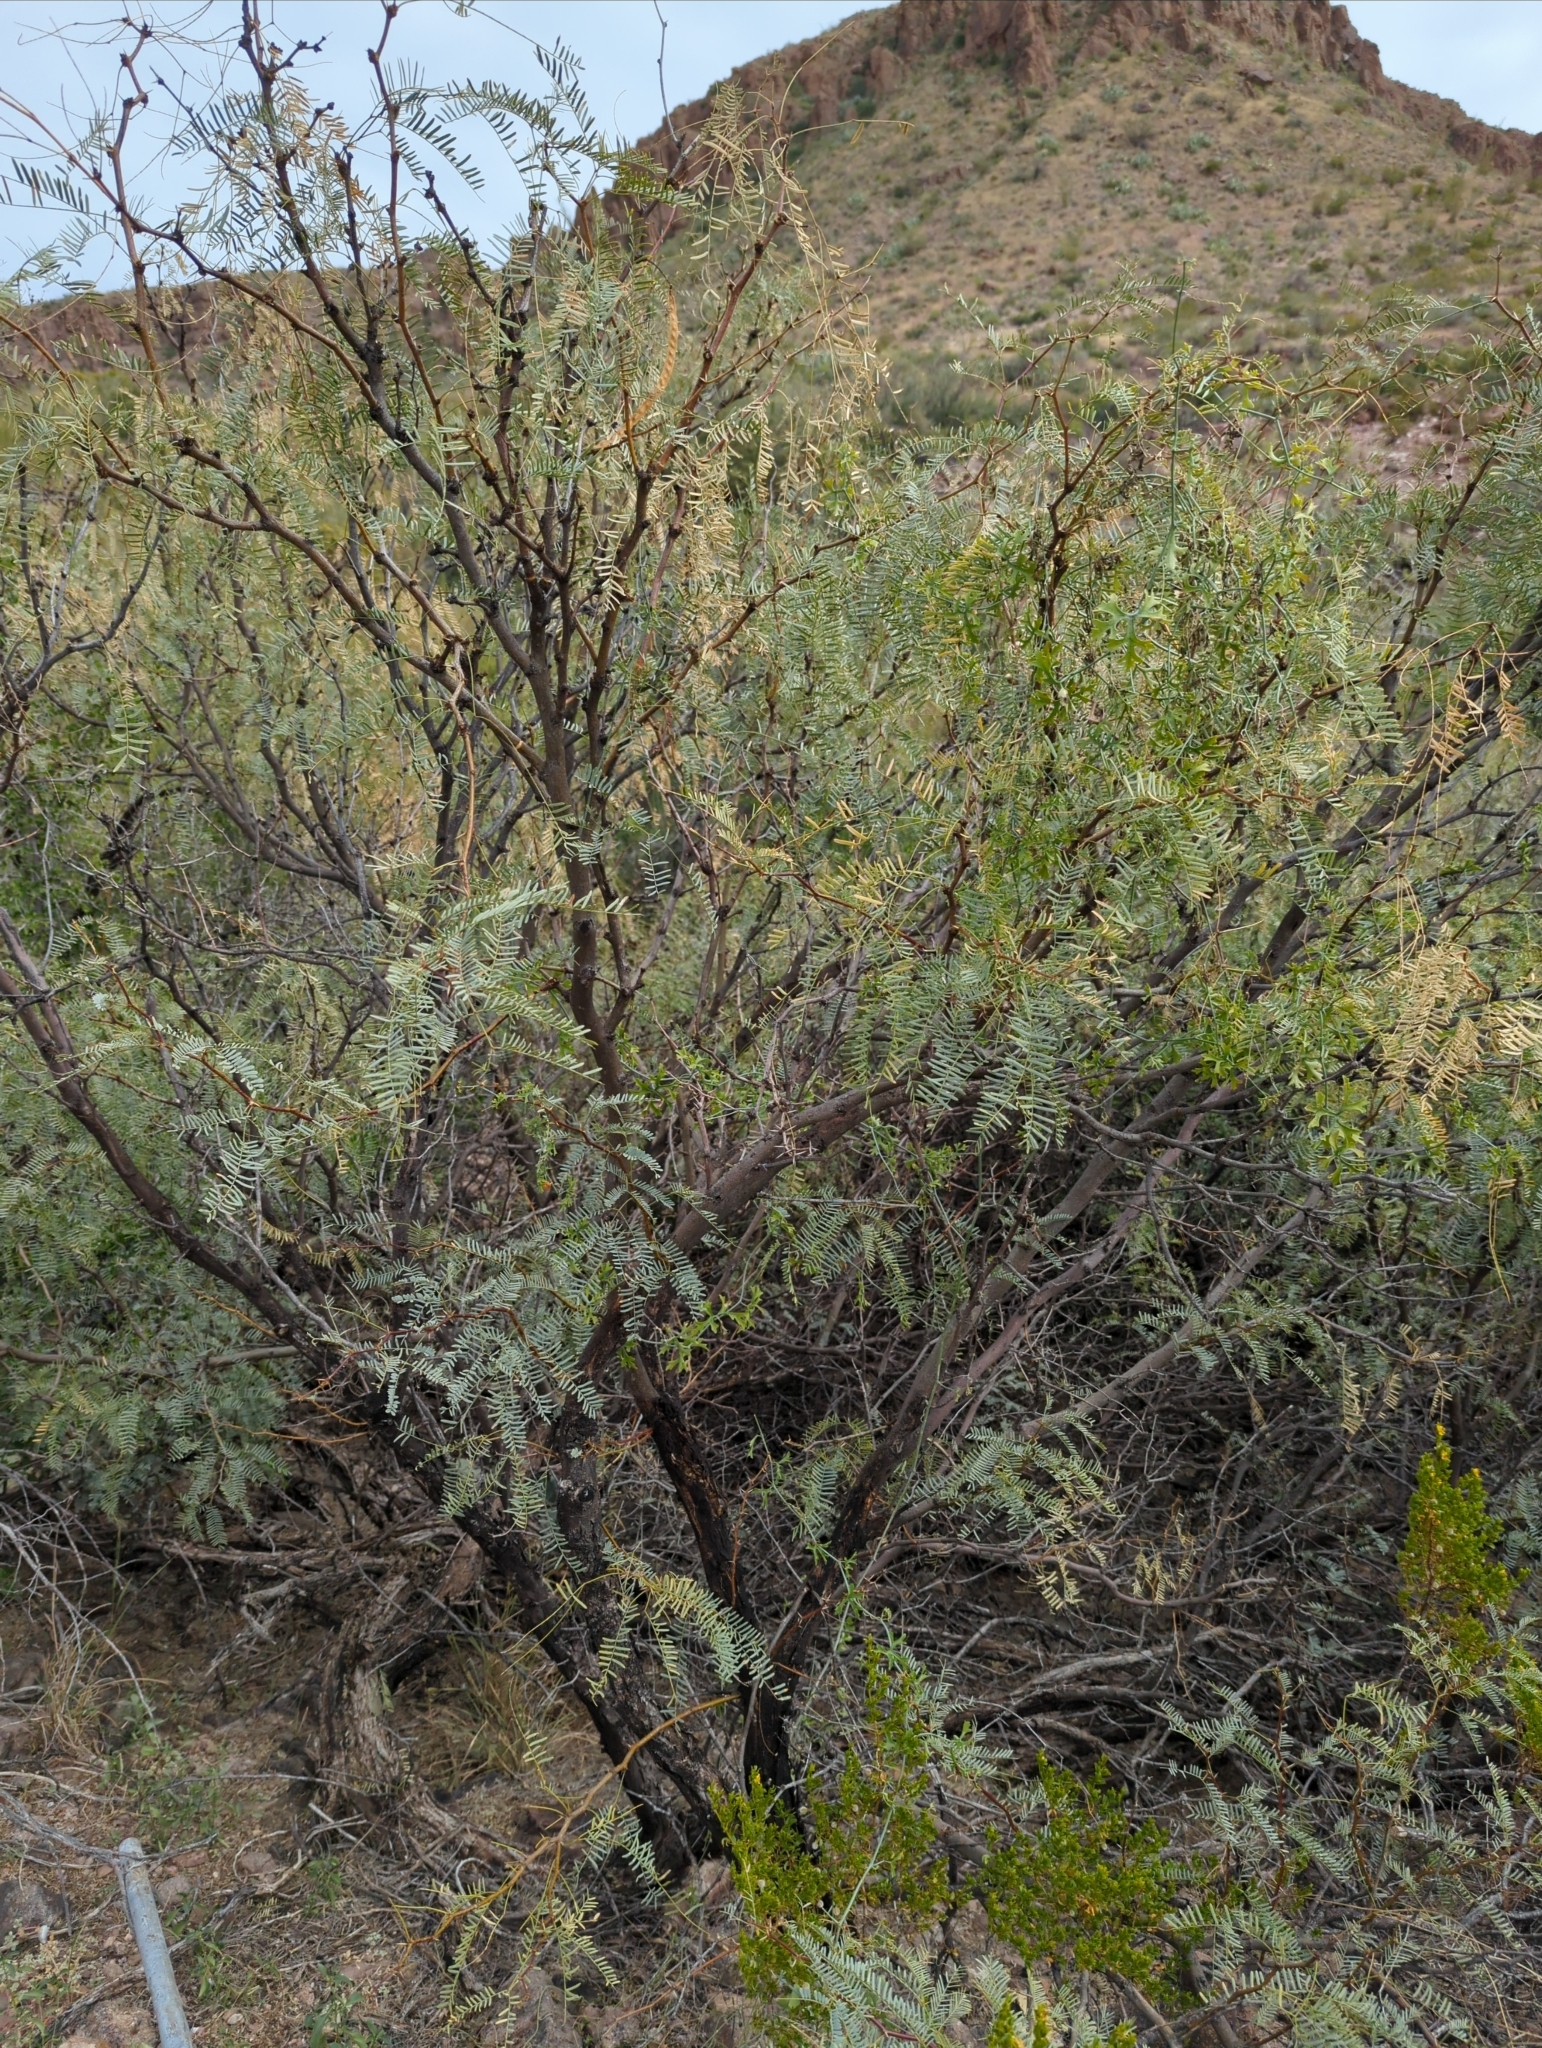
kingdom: Plantae
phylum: Tracheophyta
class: Magnoliopsida
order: Fabales
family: Fabaceae
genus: Prosopis
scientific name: Prosopis pubescens
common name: Screw-bean
